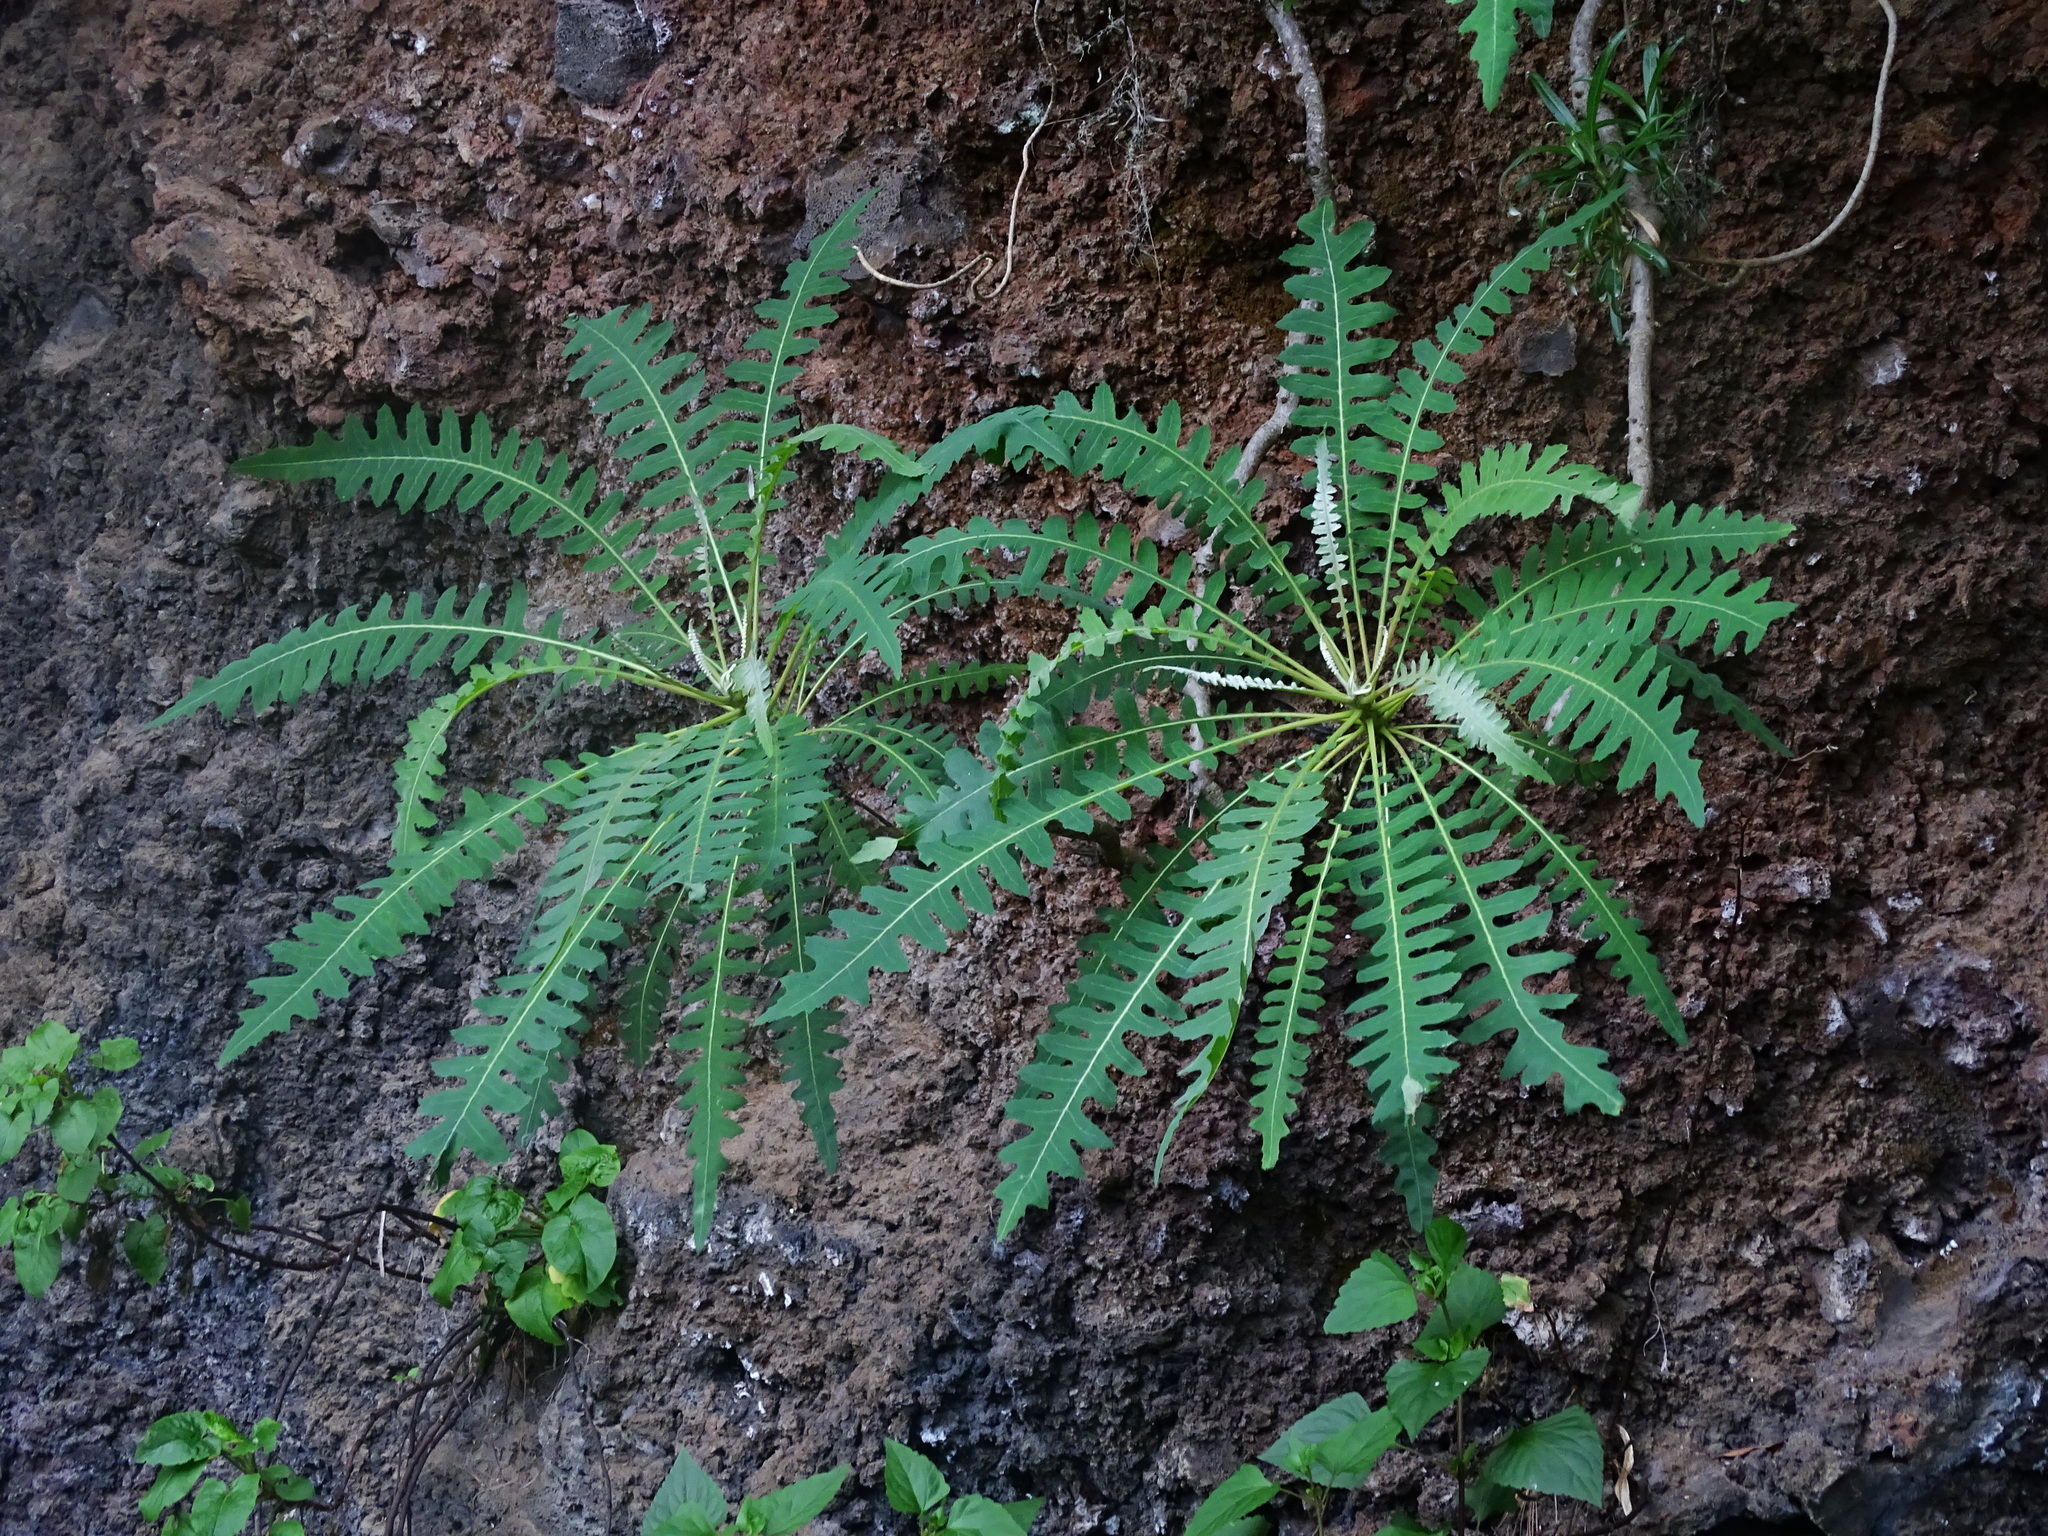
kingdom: Plantae
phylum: Tracheophyta
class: Magnoliopsida
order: Asterales
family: Asteraceae
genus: Sonchus
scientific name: Sonchus palmensis
